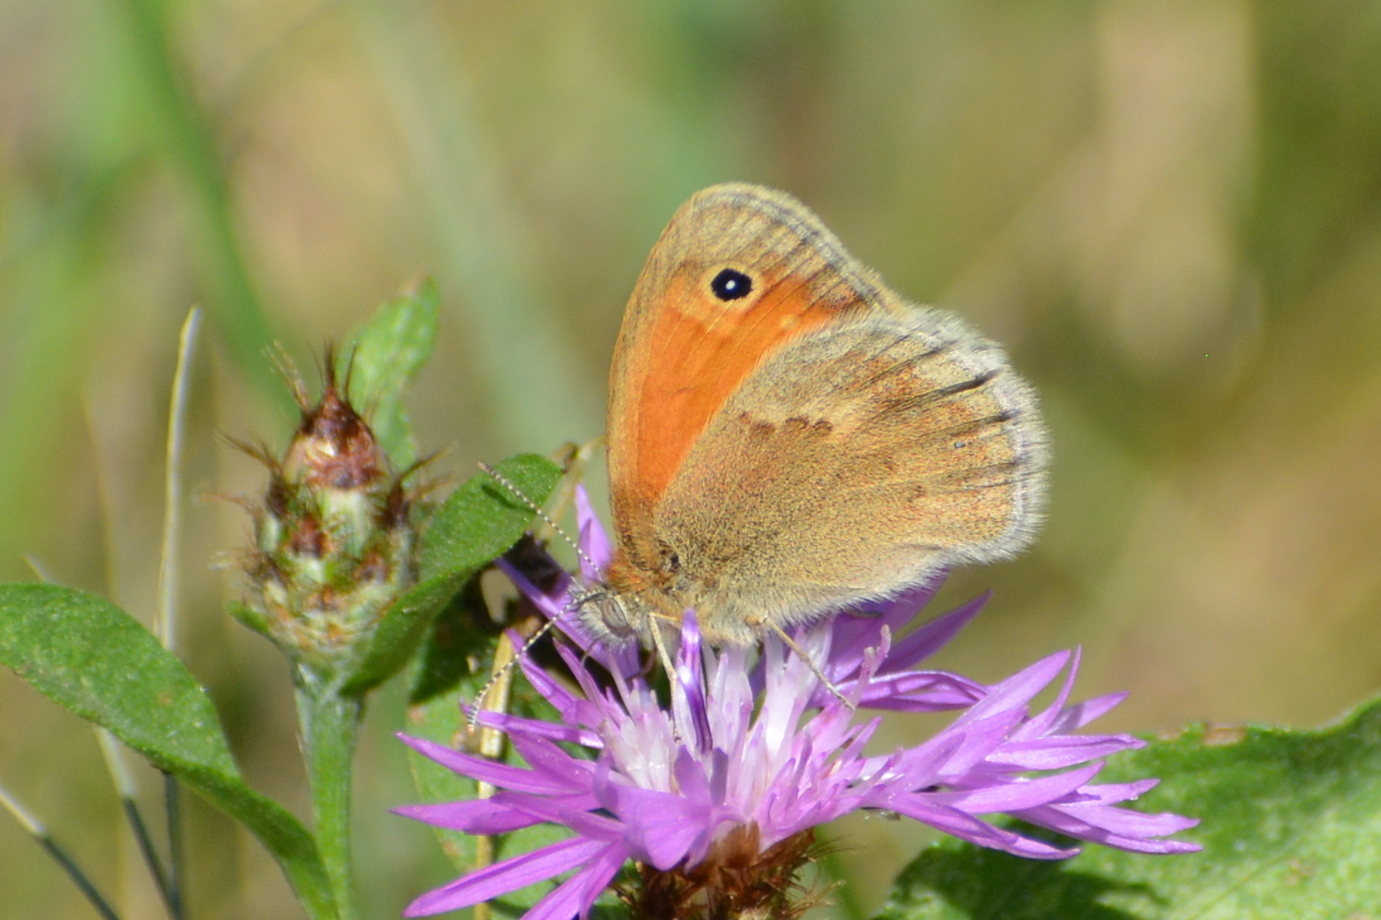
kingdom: Animalia
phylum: Arthropoda
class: Insecta
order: Lepidoptera
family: Nymphalidae
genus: Coenonympha
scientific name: Coenonympha pamphilus
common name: Small heath
